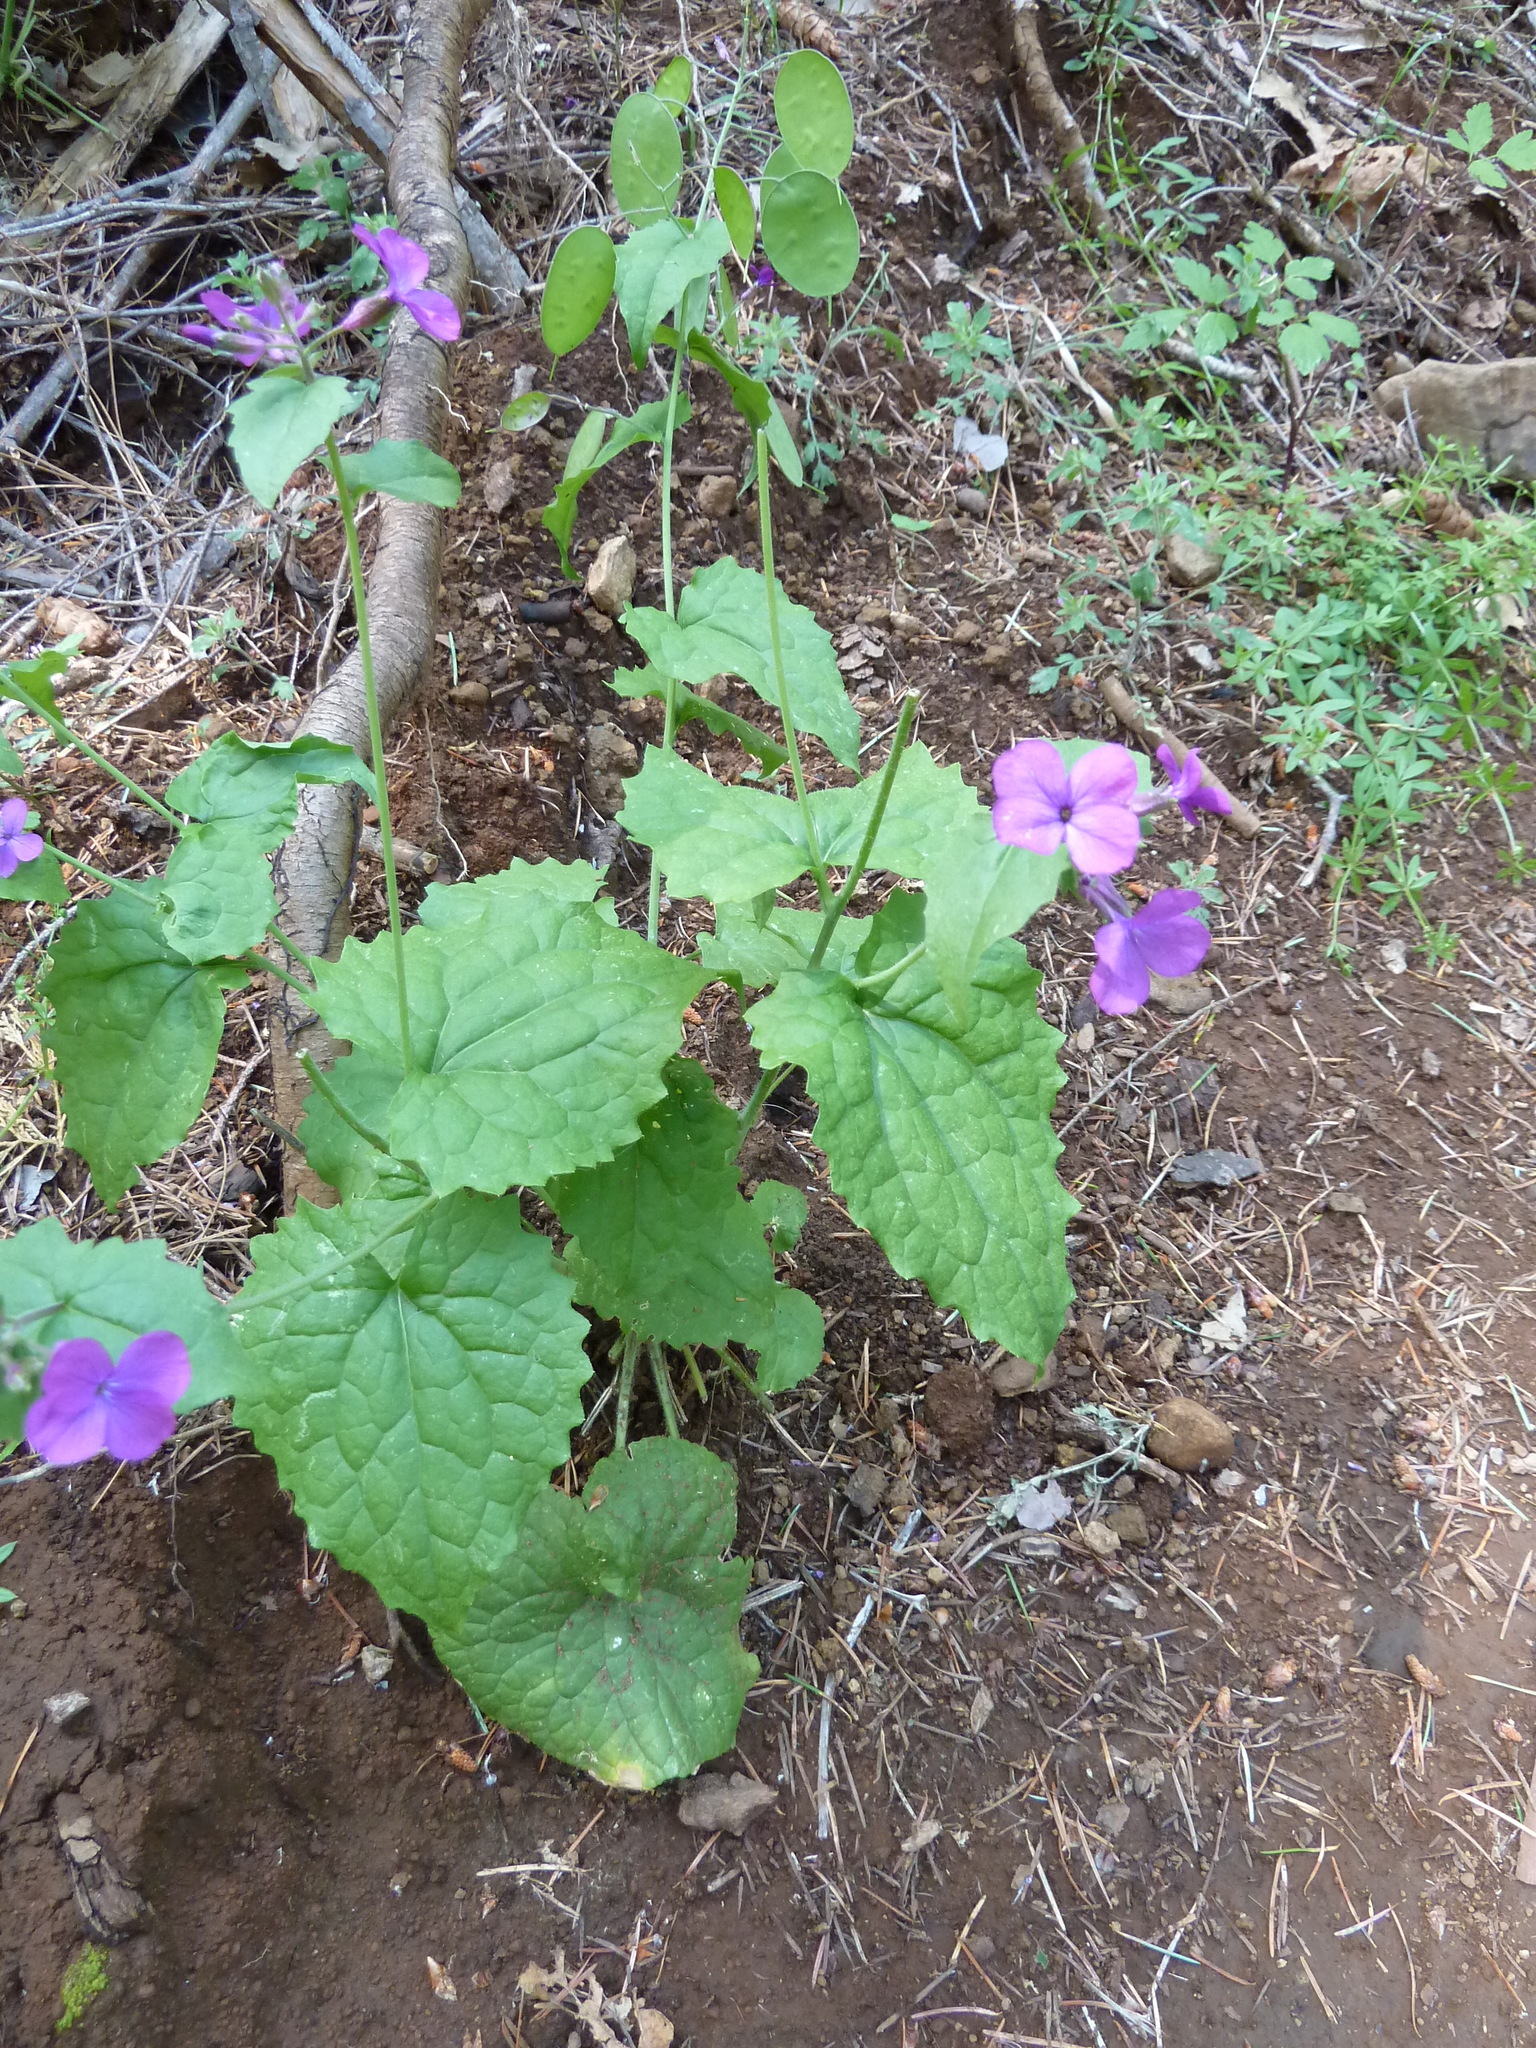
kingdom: Plantae
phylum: Tracheophyta
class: Magnoliopsida
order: Brassicales
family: Brassicaceae
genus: Lunaria
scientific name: Lunaria annua
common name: Honesty
